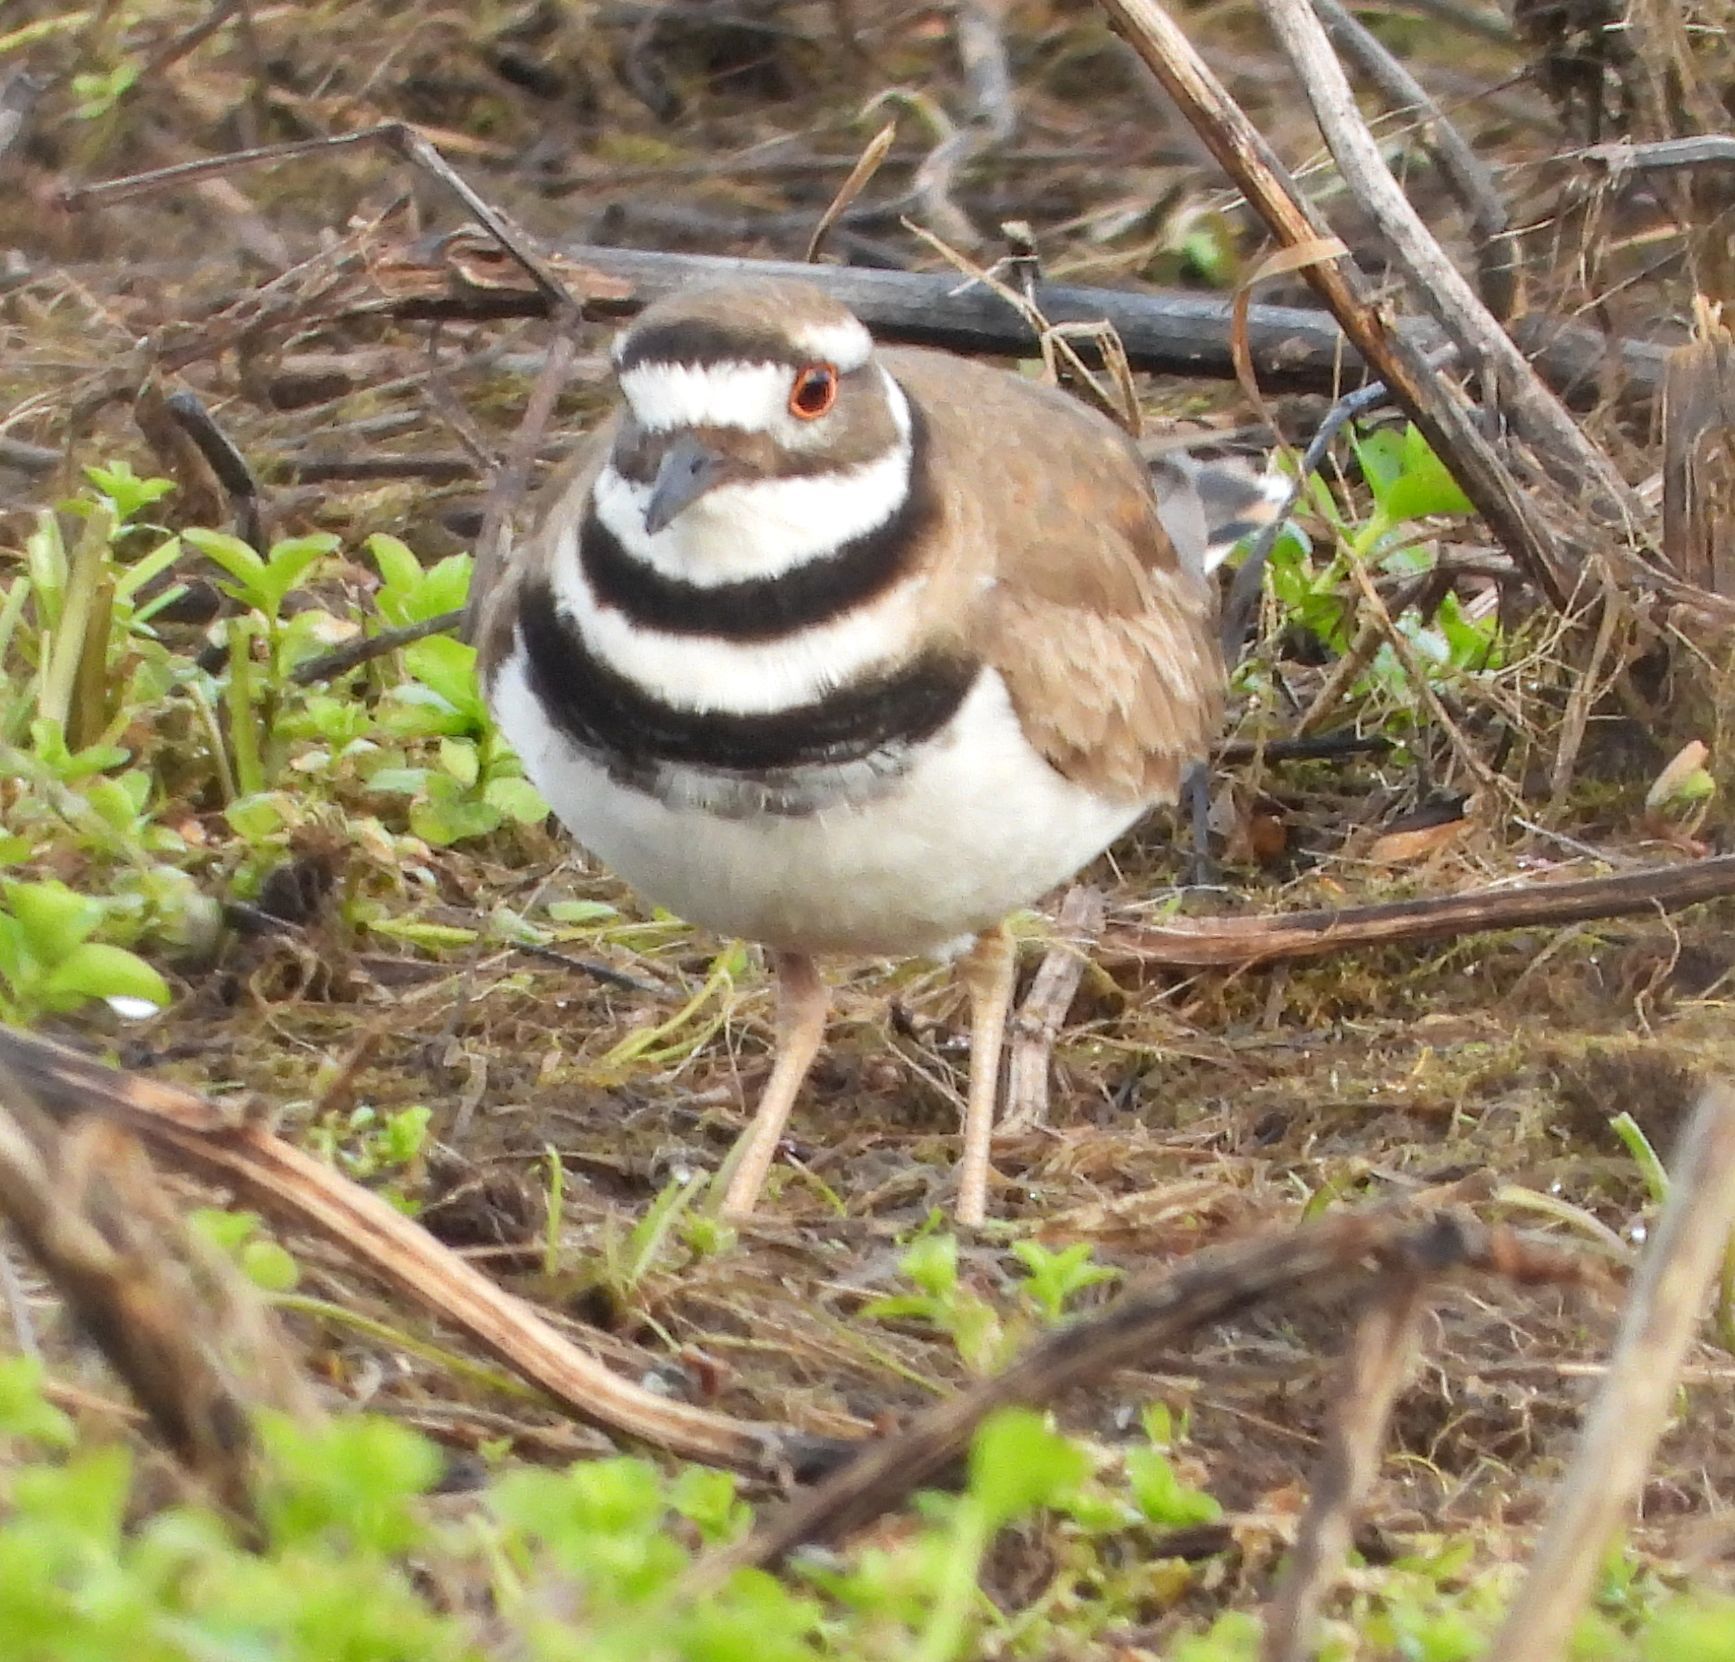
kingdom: Animalia
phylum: Chordata
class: Aves
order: Charadriiformes
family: Charadriidae
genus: Charadrius
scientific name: Charadrius vociferus
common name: Killdeer
